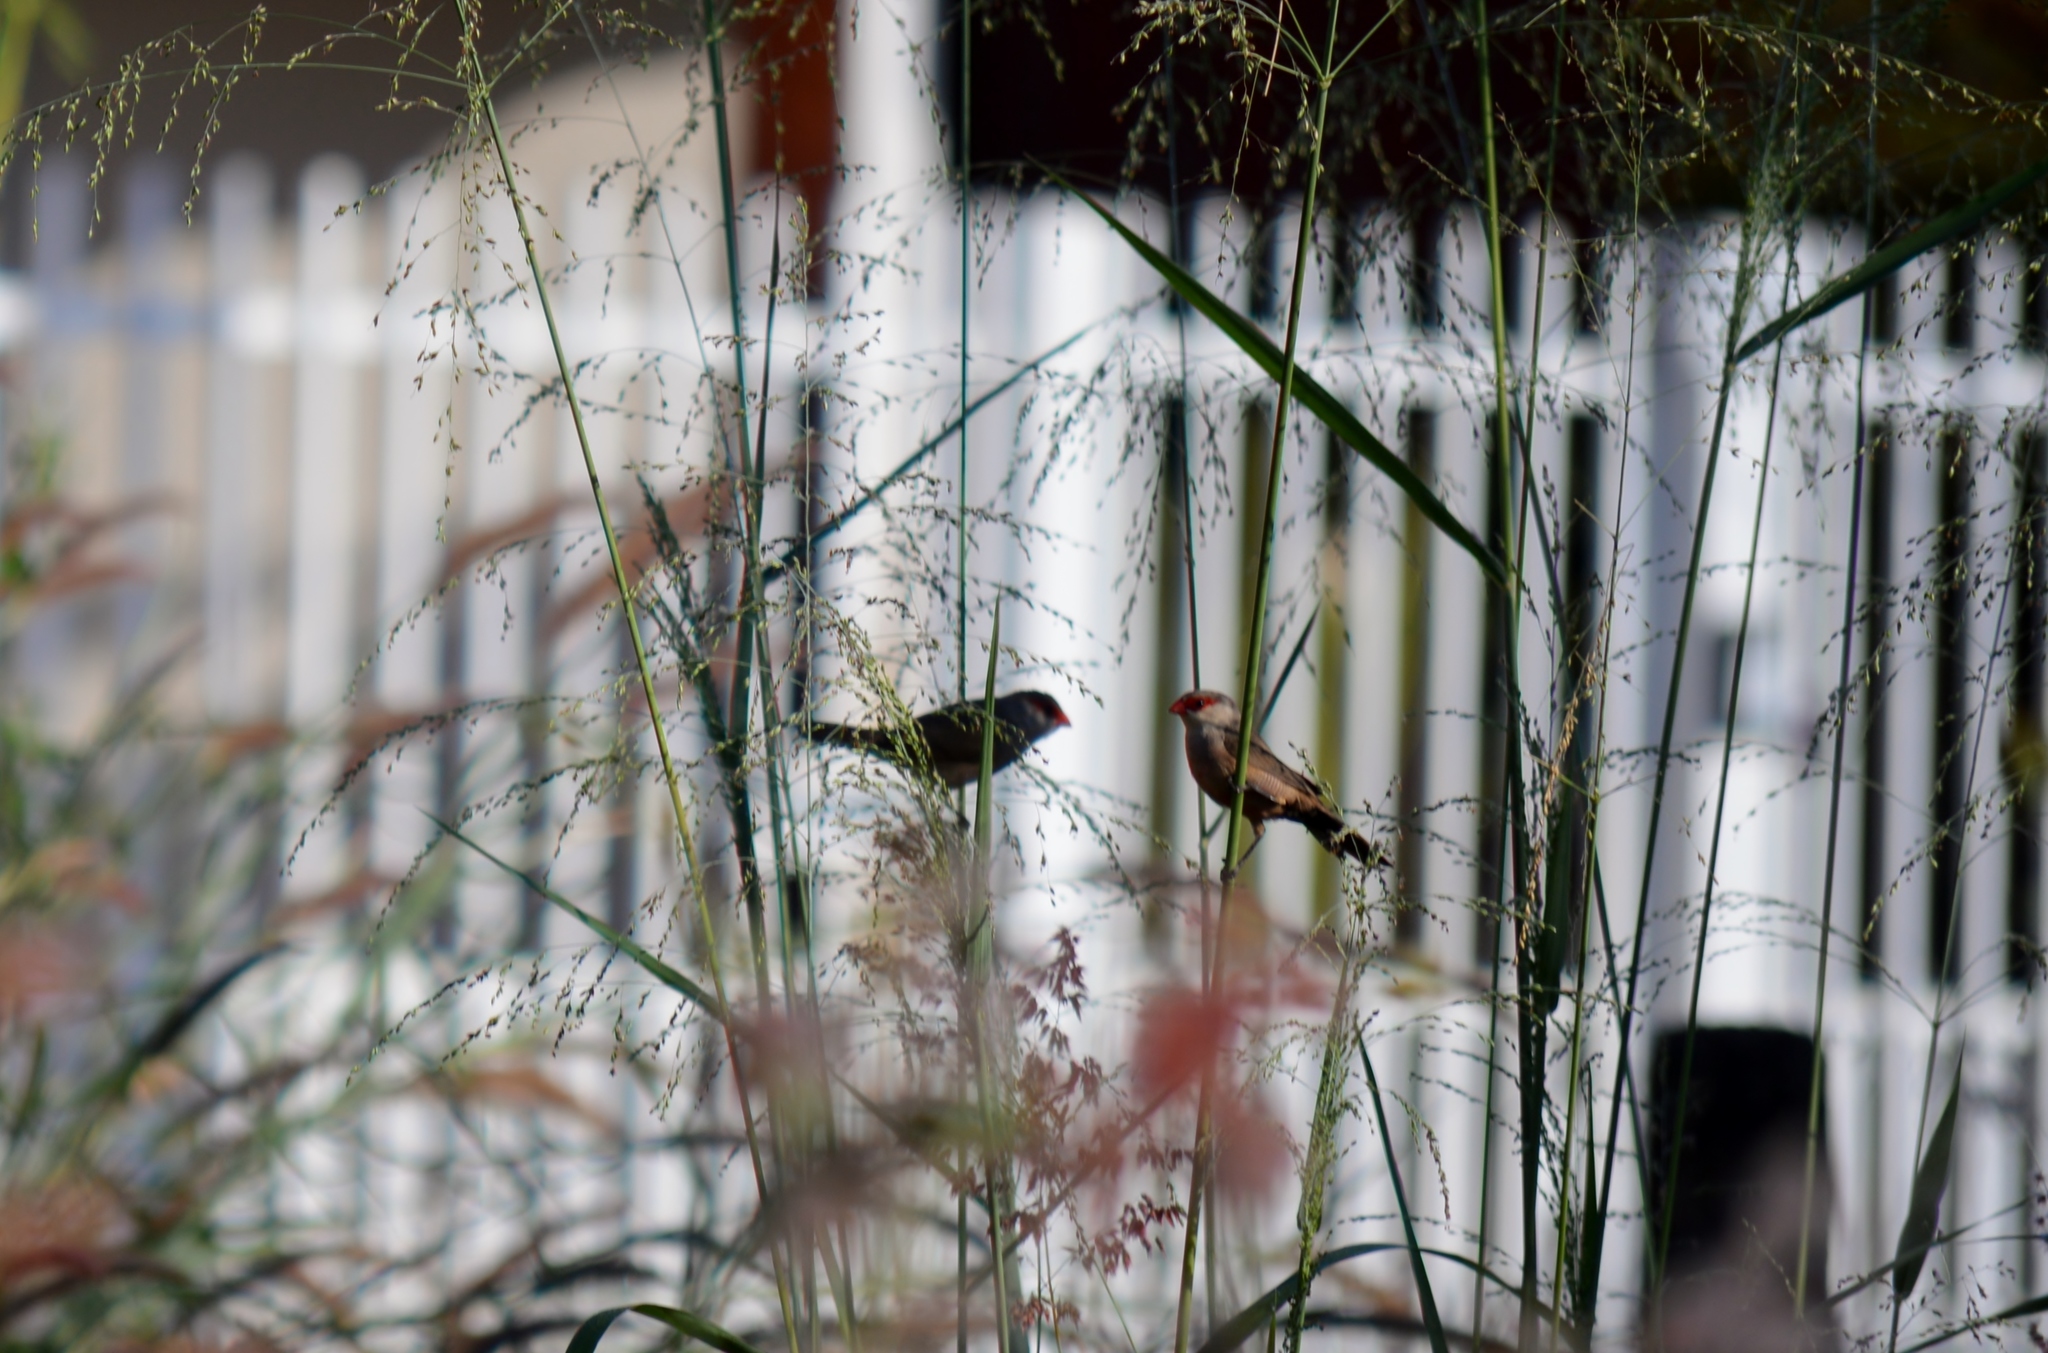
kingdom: Animalia
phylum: Chordata
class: Aves
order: Passeriformes
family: Estrildidae
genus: Estrilda
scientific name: Estrilda astrild
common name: Common waxbill
